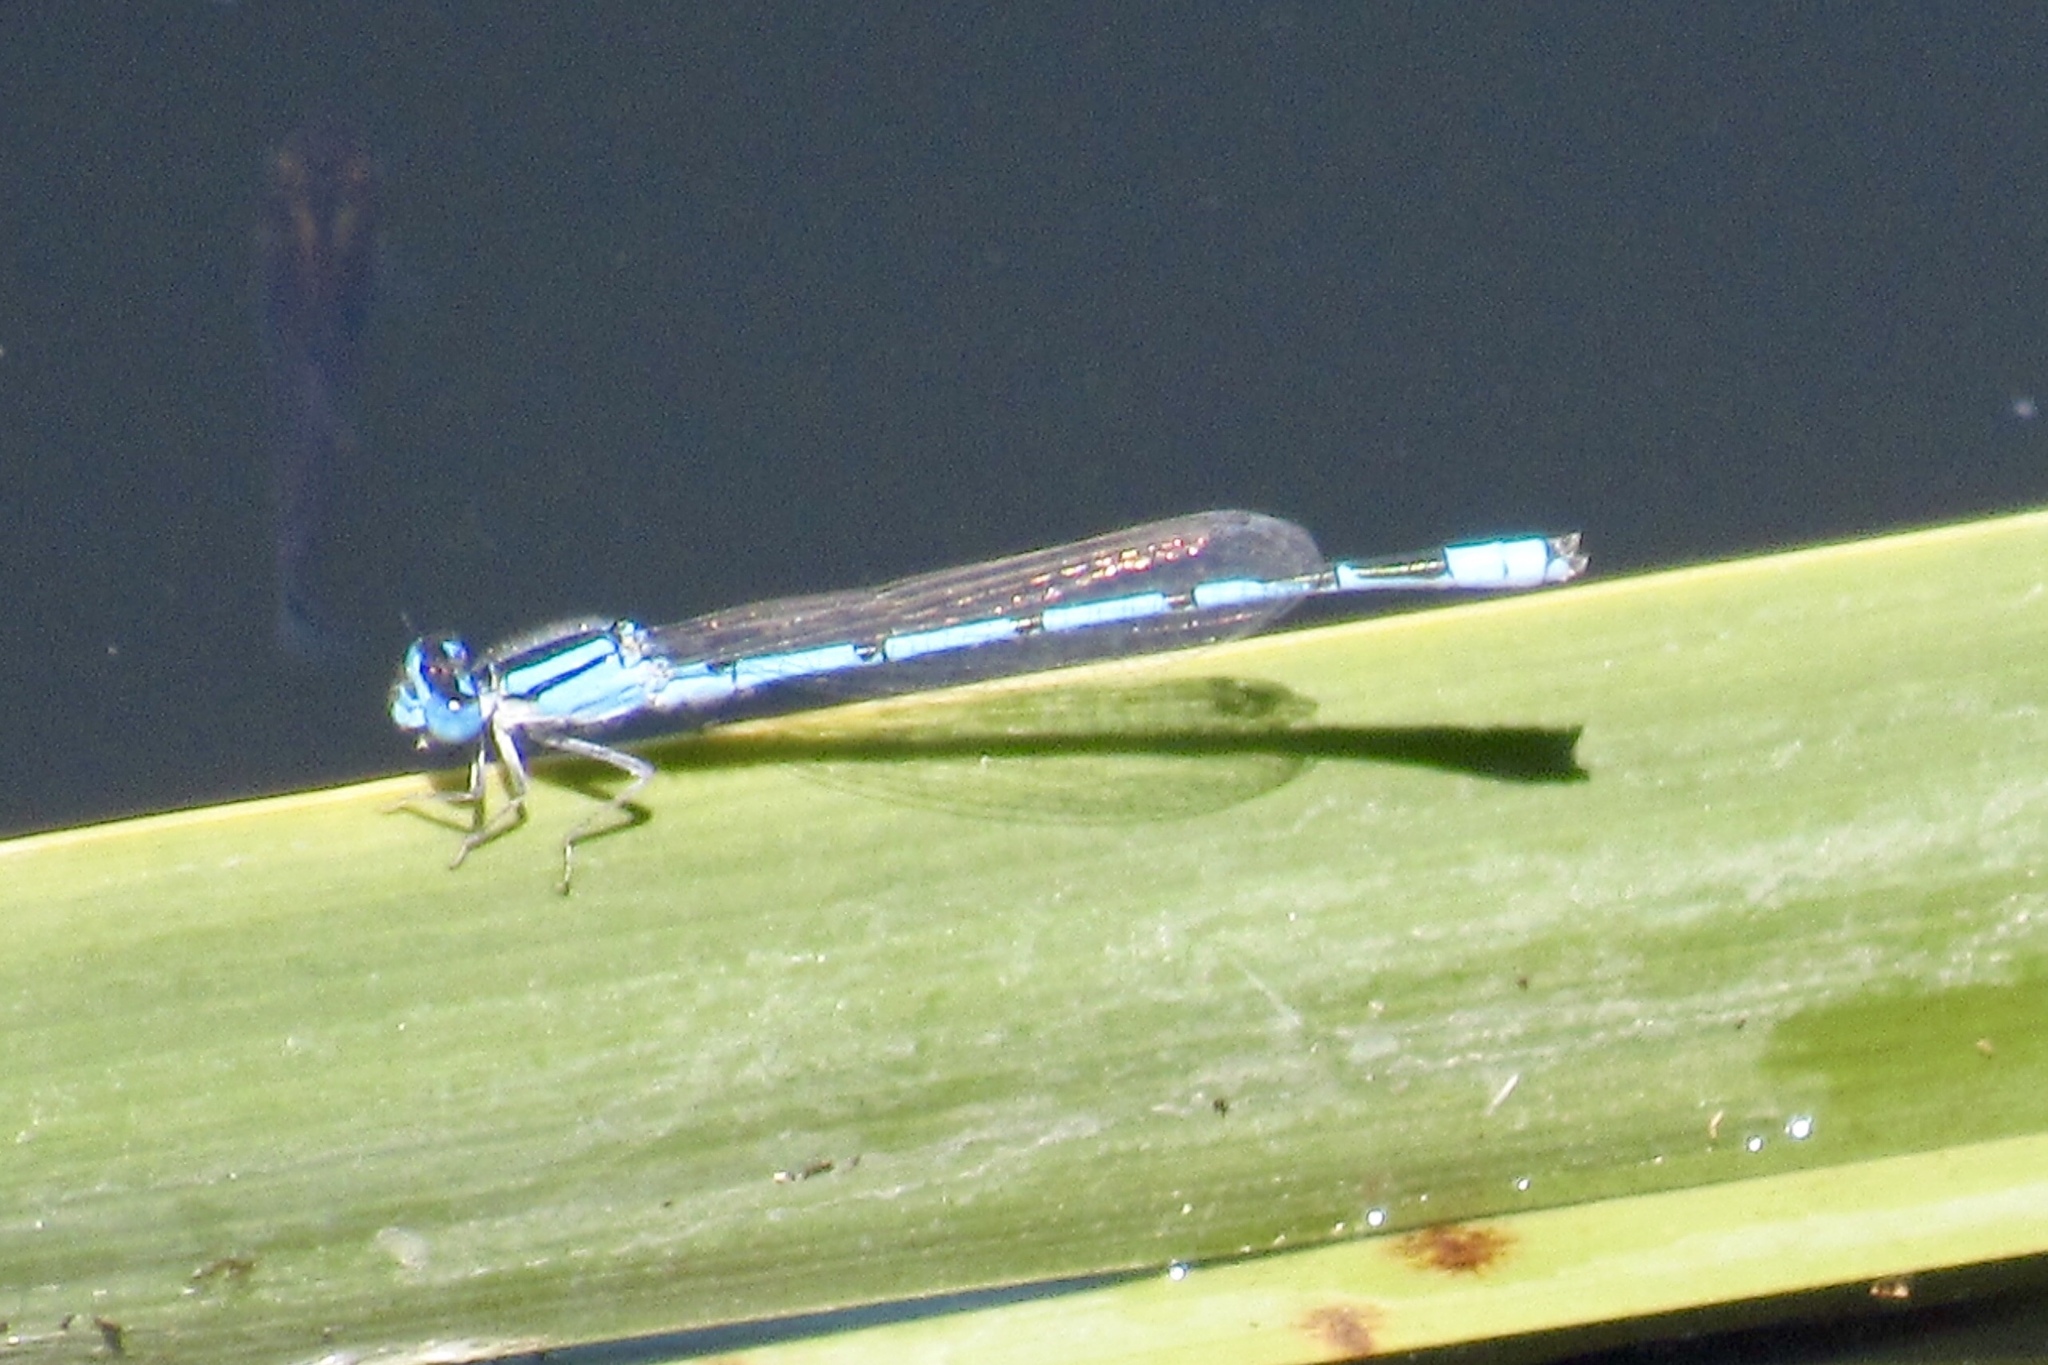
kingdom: Animalia
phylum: Arthropoda
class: Insecta
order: Odonata
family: Coenagrionidae
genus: Enallagma
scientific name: Enallagma civile
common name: Damselfly
